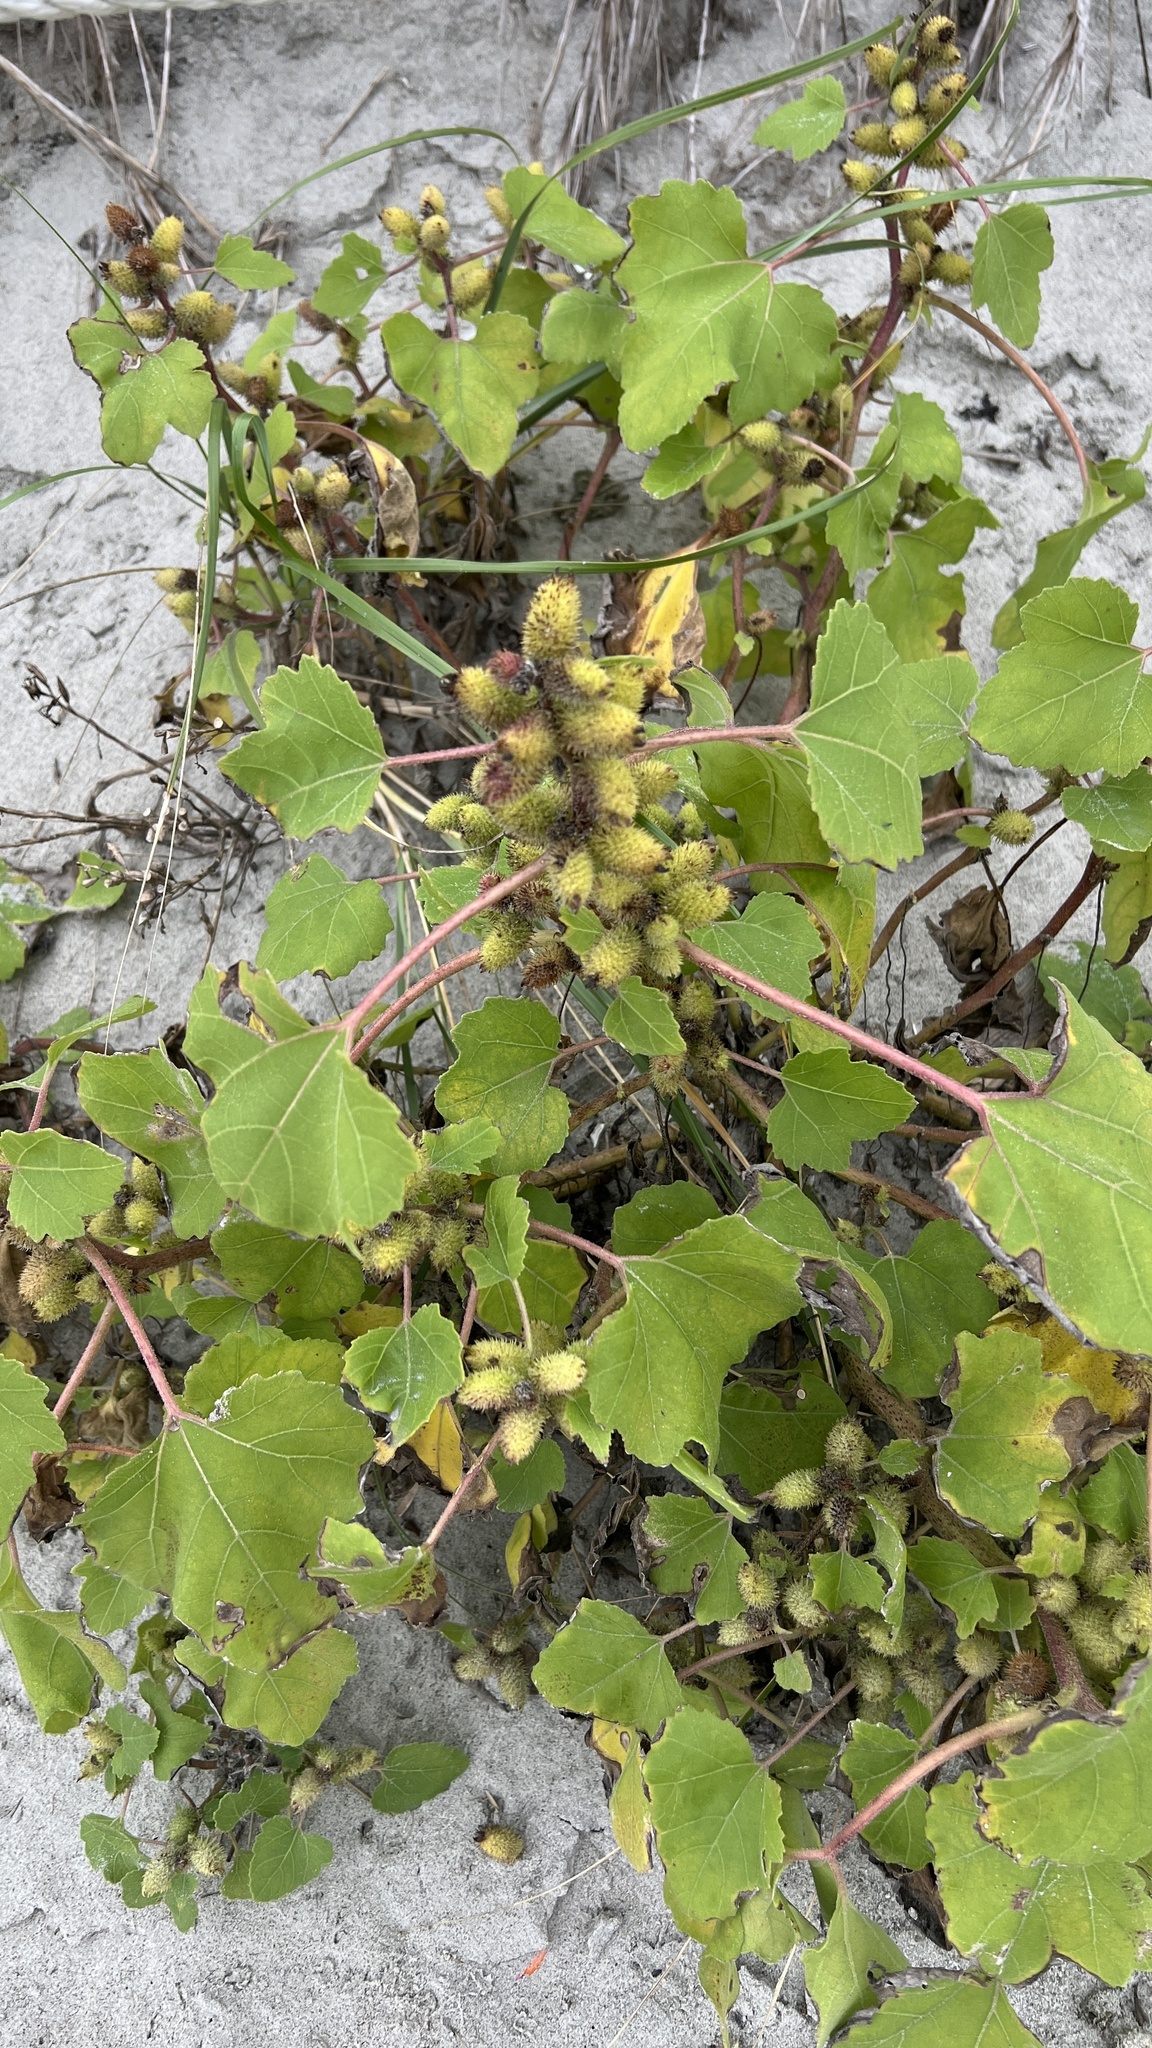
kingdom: Plantae
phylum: Tracheophyta
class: Magnoliopsida
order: Asterales
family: Asteraceae
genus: Xanthium
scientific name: Xanthium strumarium
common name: Rough cocklebur
